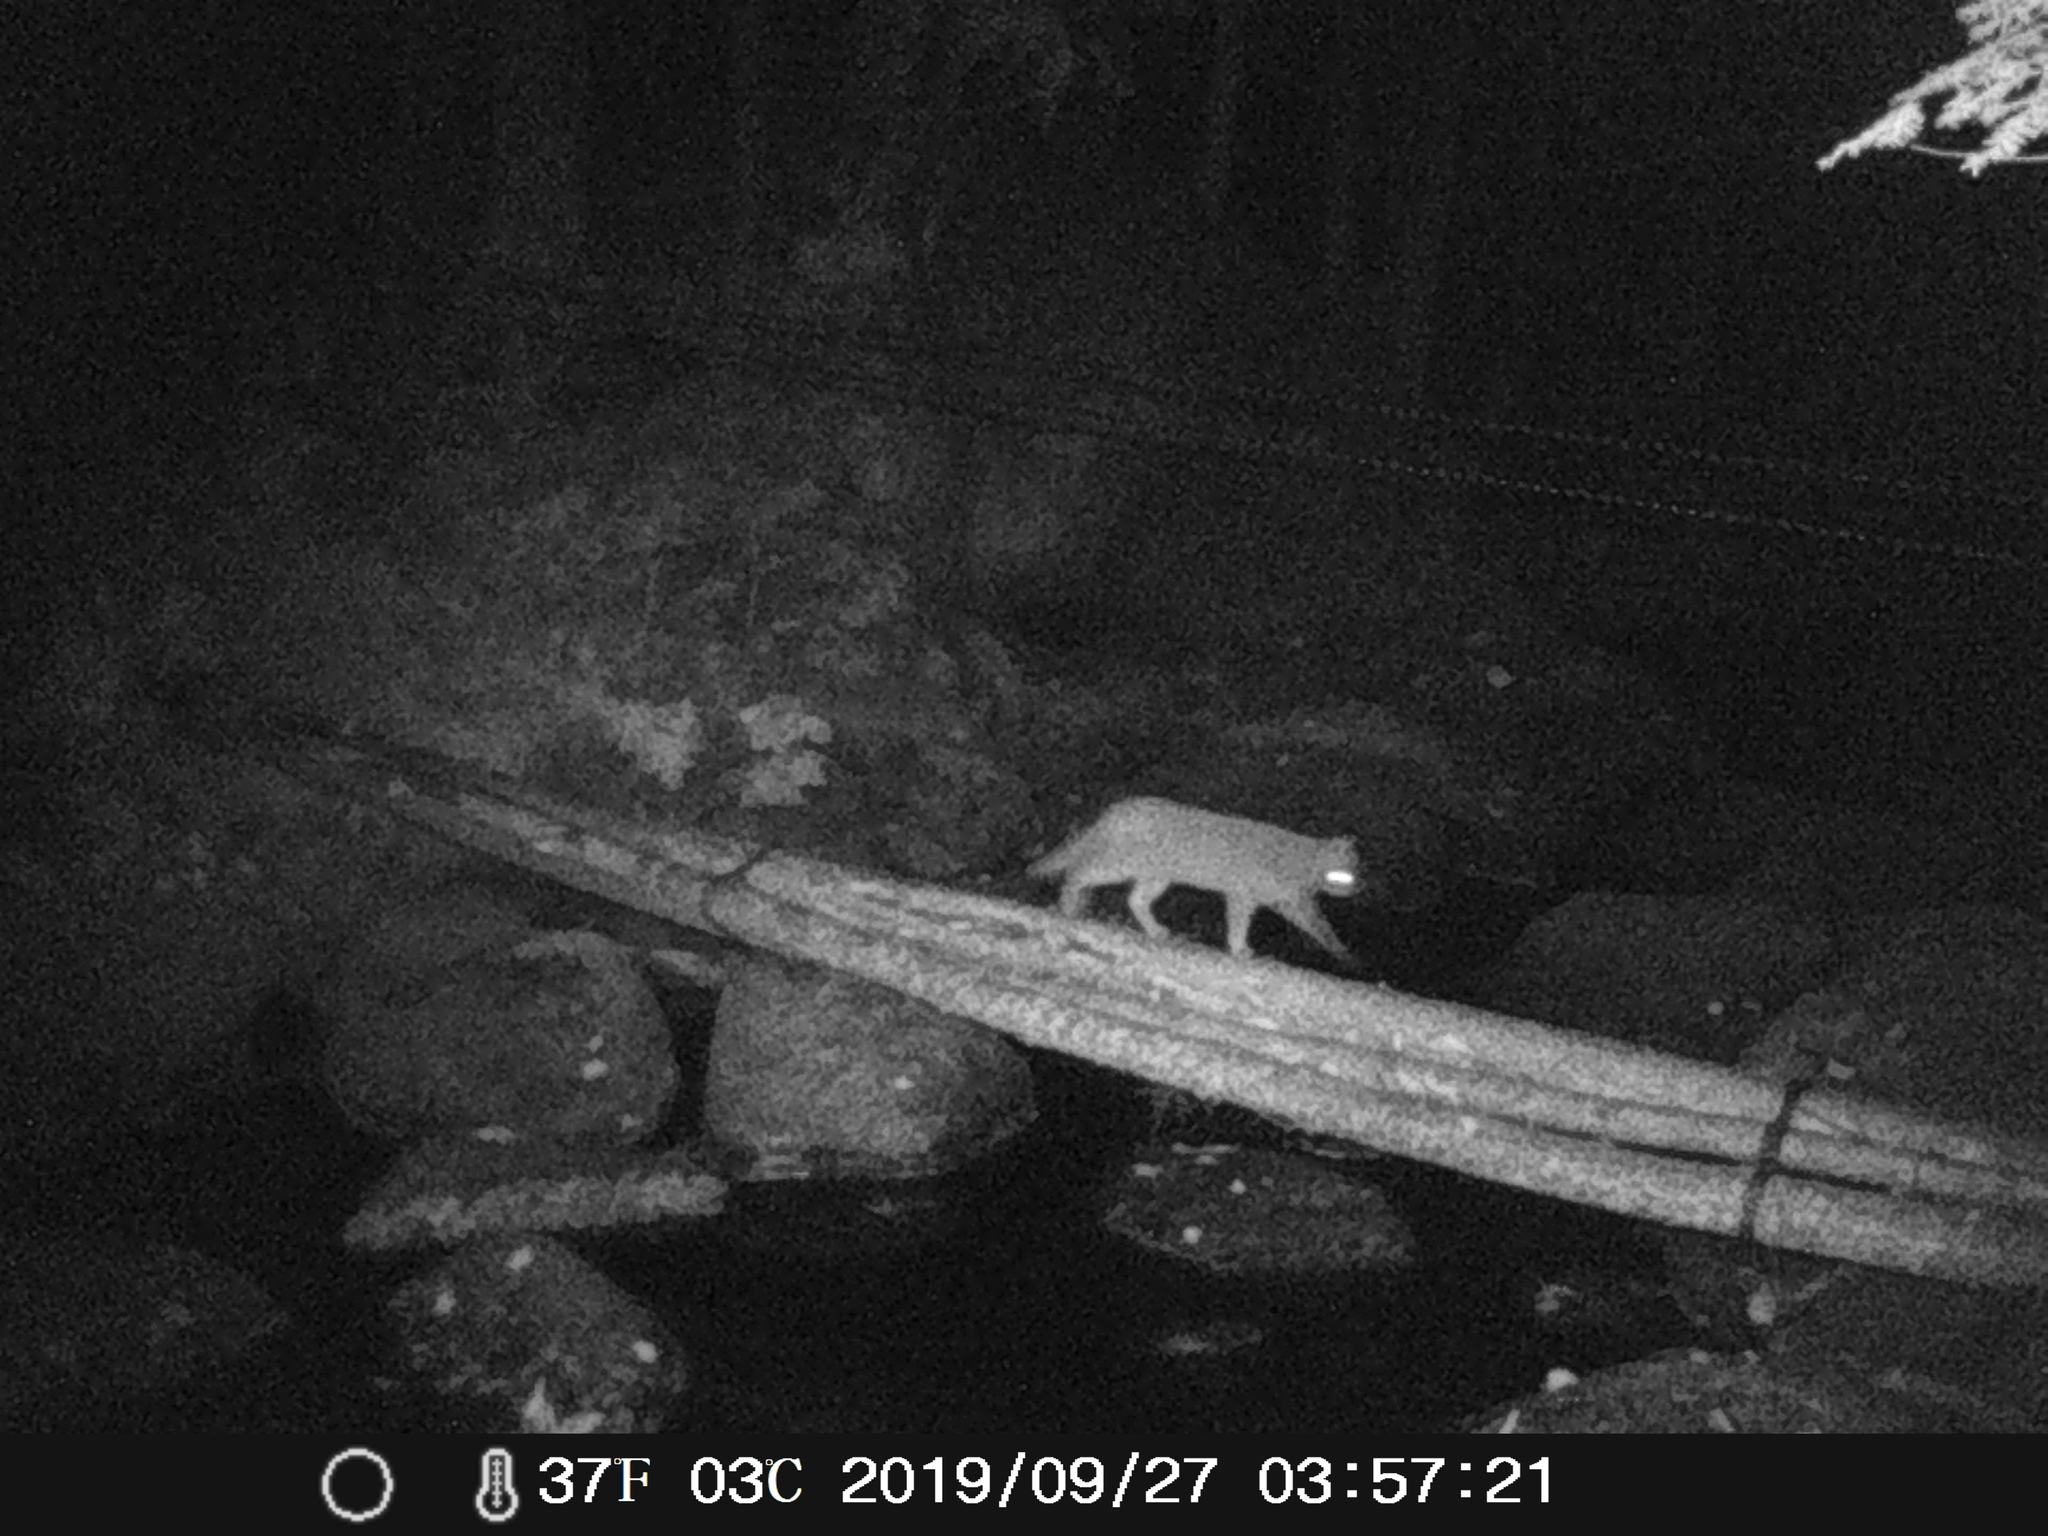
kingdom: Animalia
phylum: Chordata
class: Mammalia
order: Carnivora
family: Felidae
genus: Felis
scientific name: Felis catus
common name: Domestic cat
